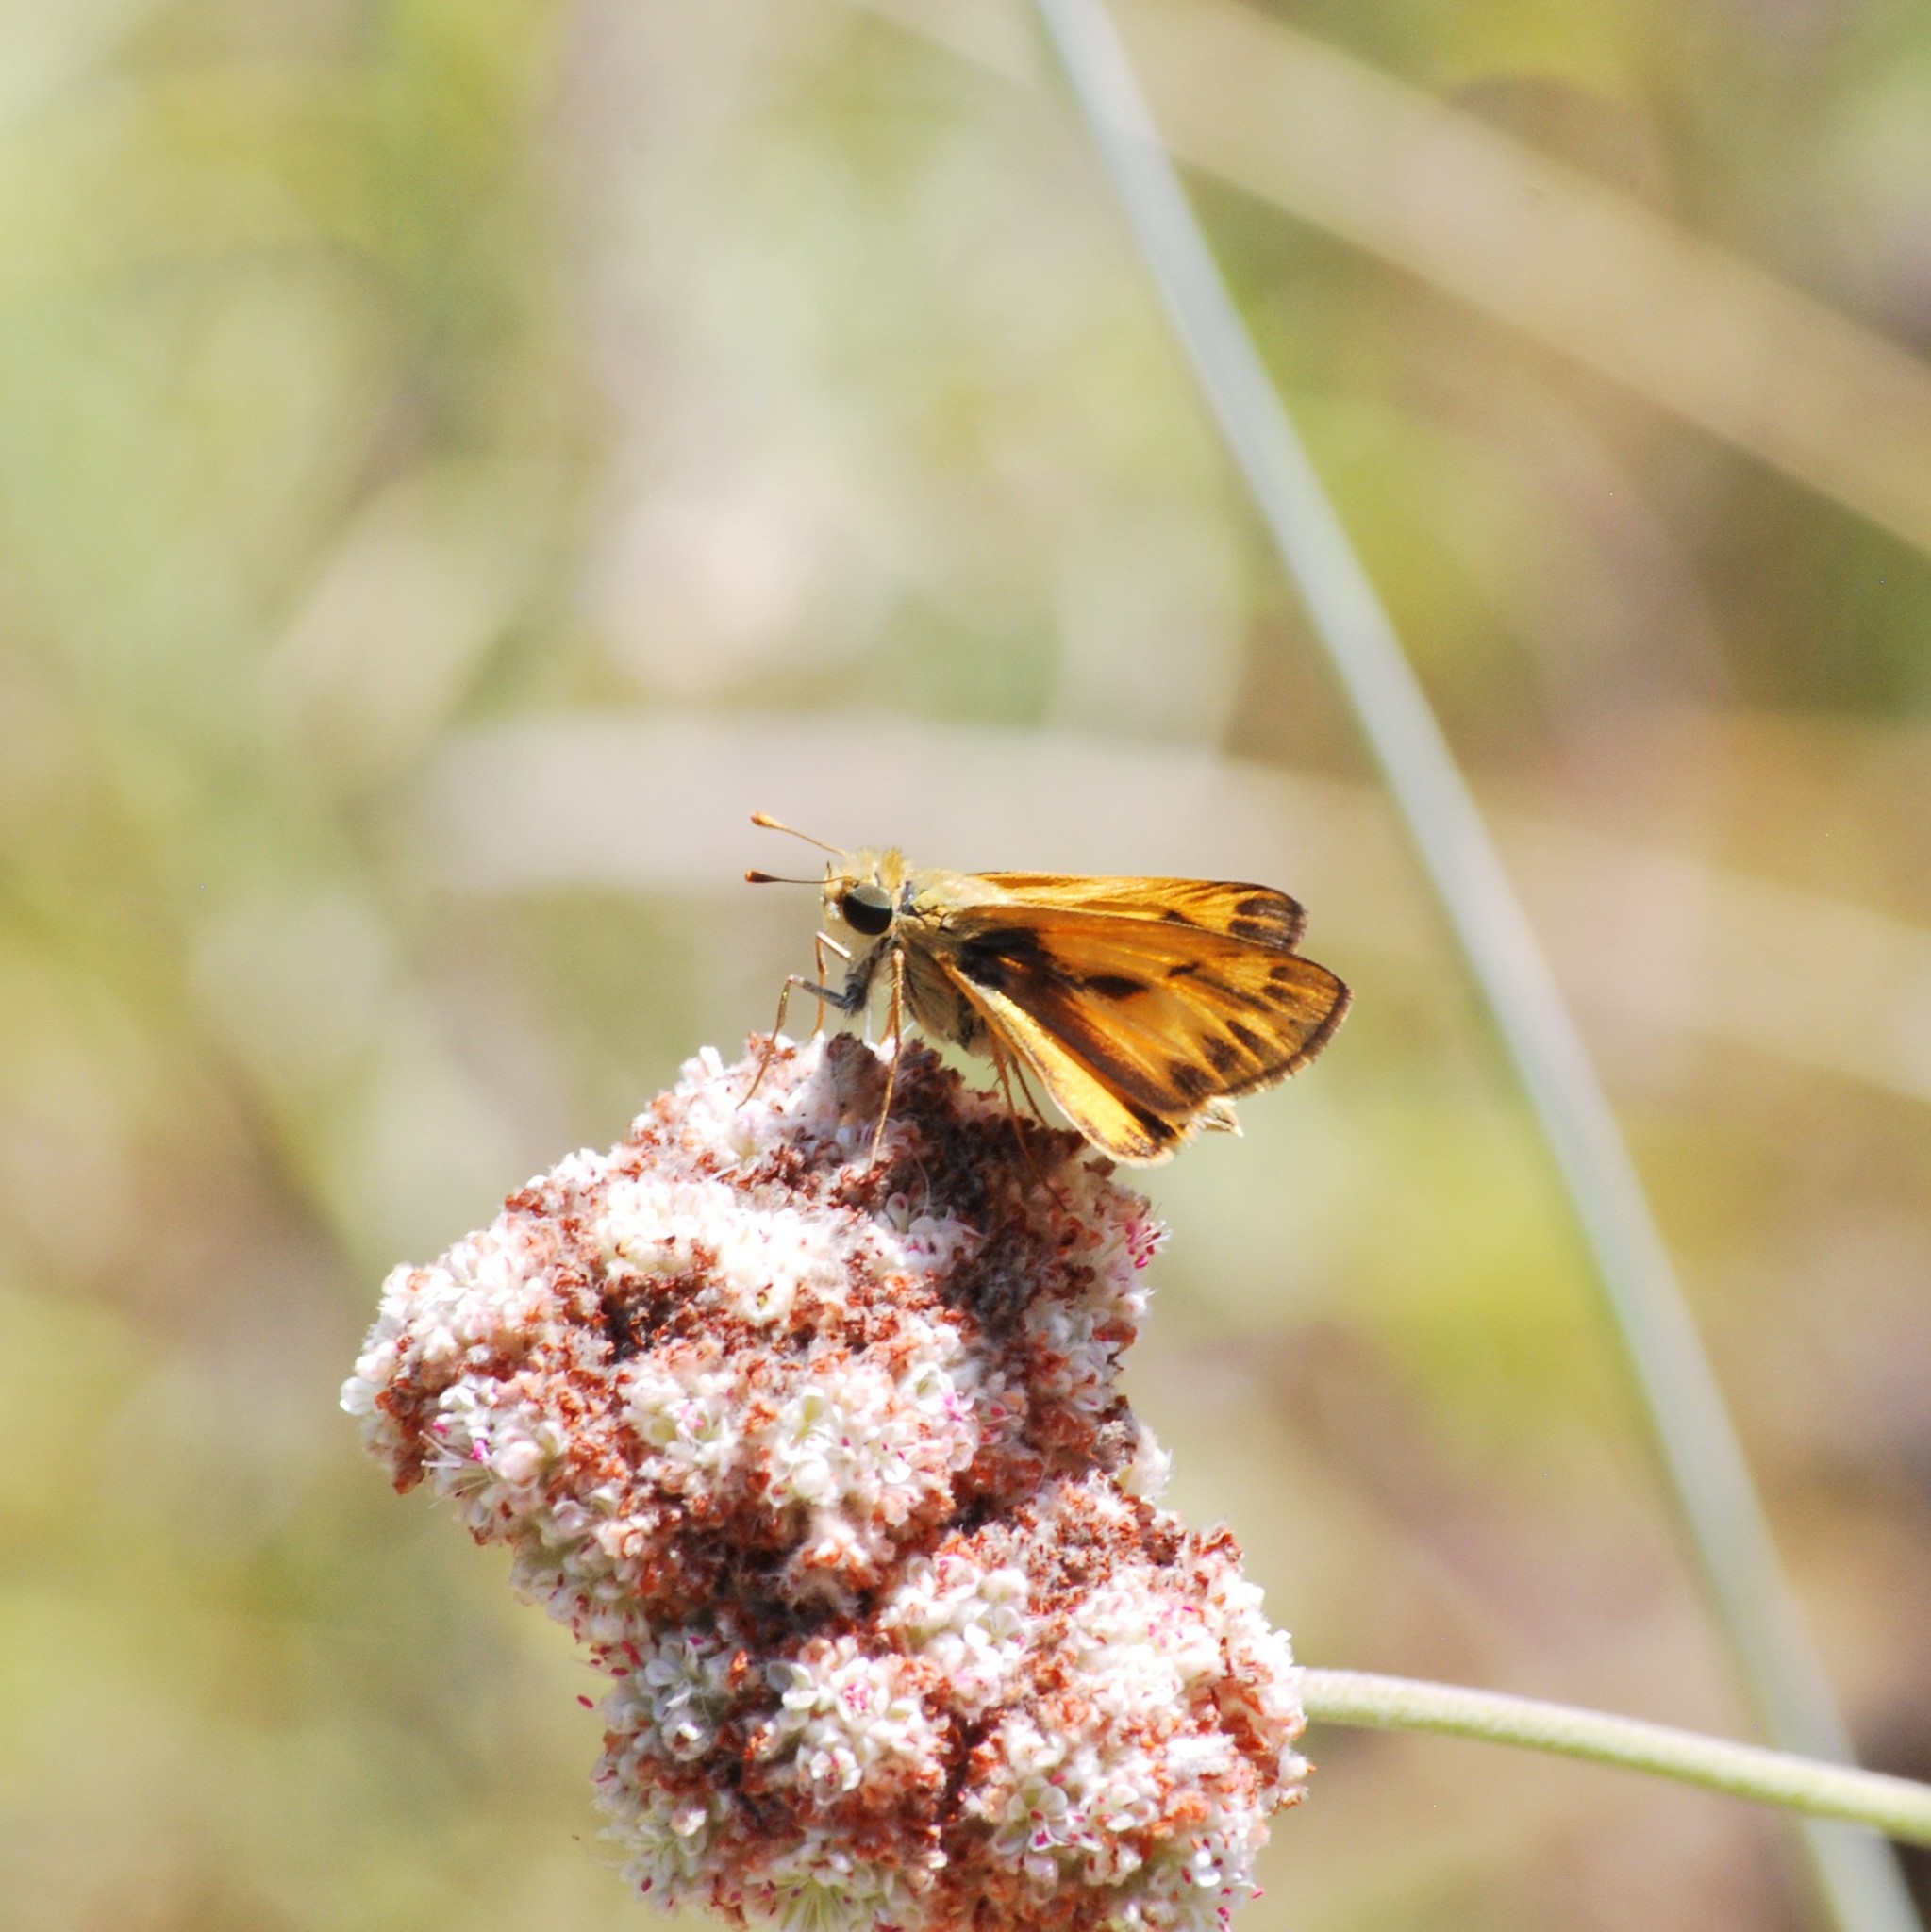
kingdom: Animalia
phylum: Arthropoda
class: Insecta
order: Lepidoptera
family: Hesperiidae
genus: Hylephila
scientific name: Hylephila phyleus
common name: Fiery skipper
